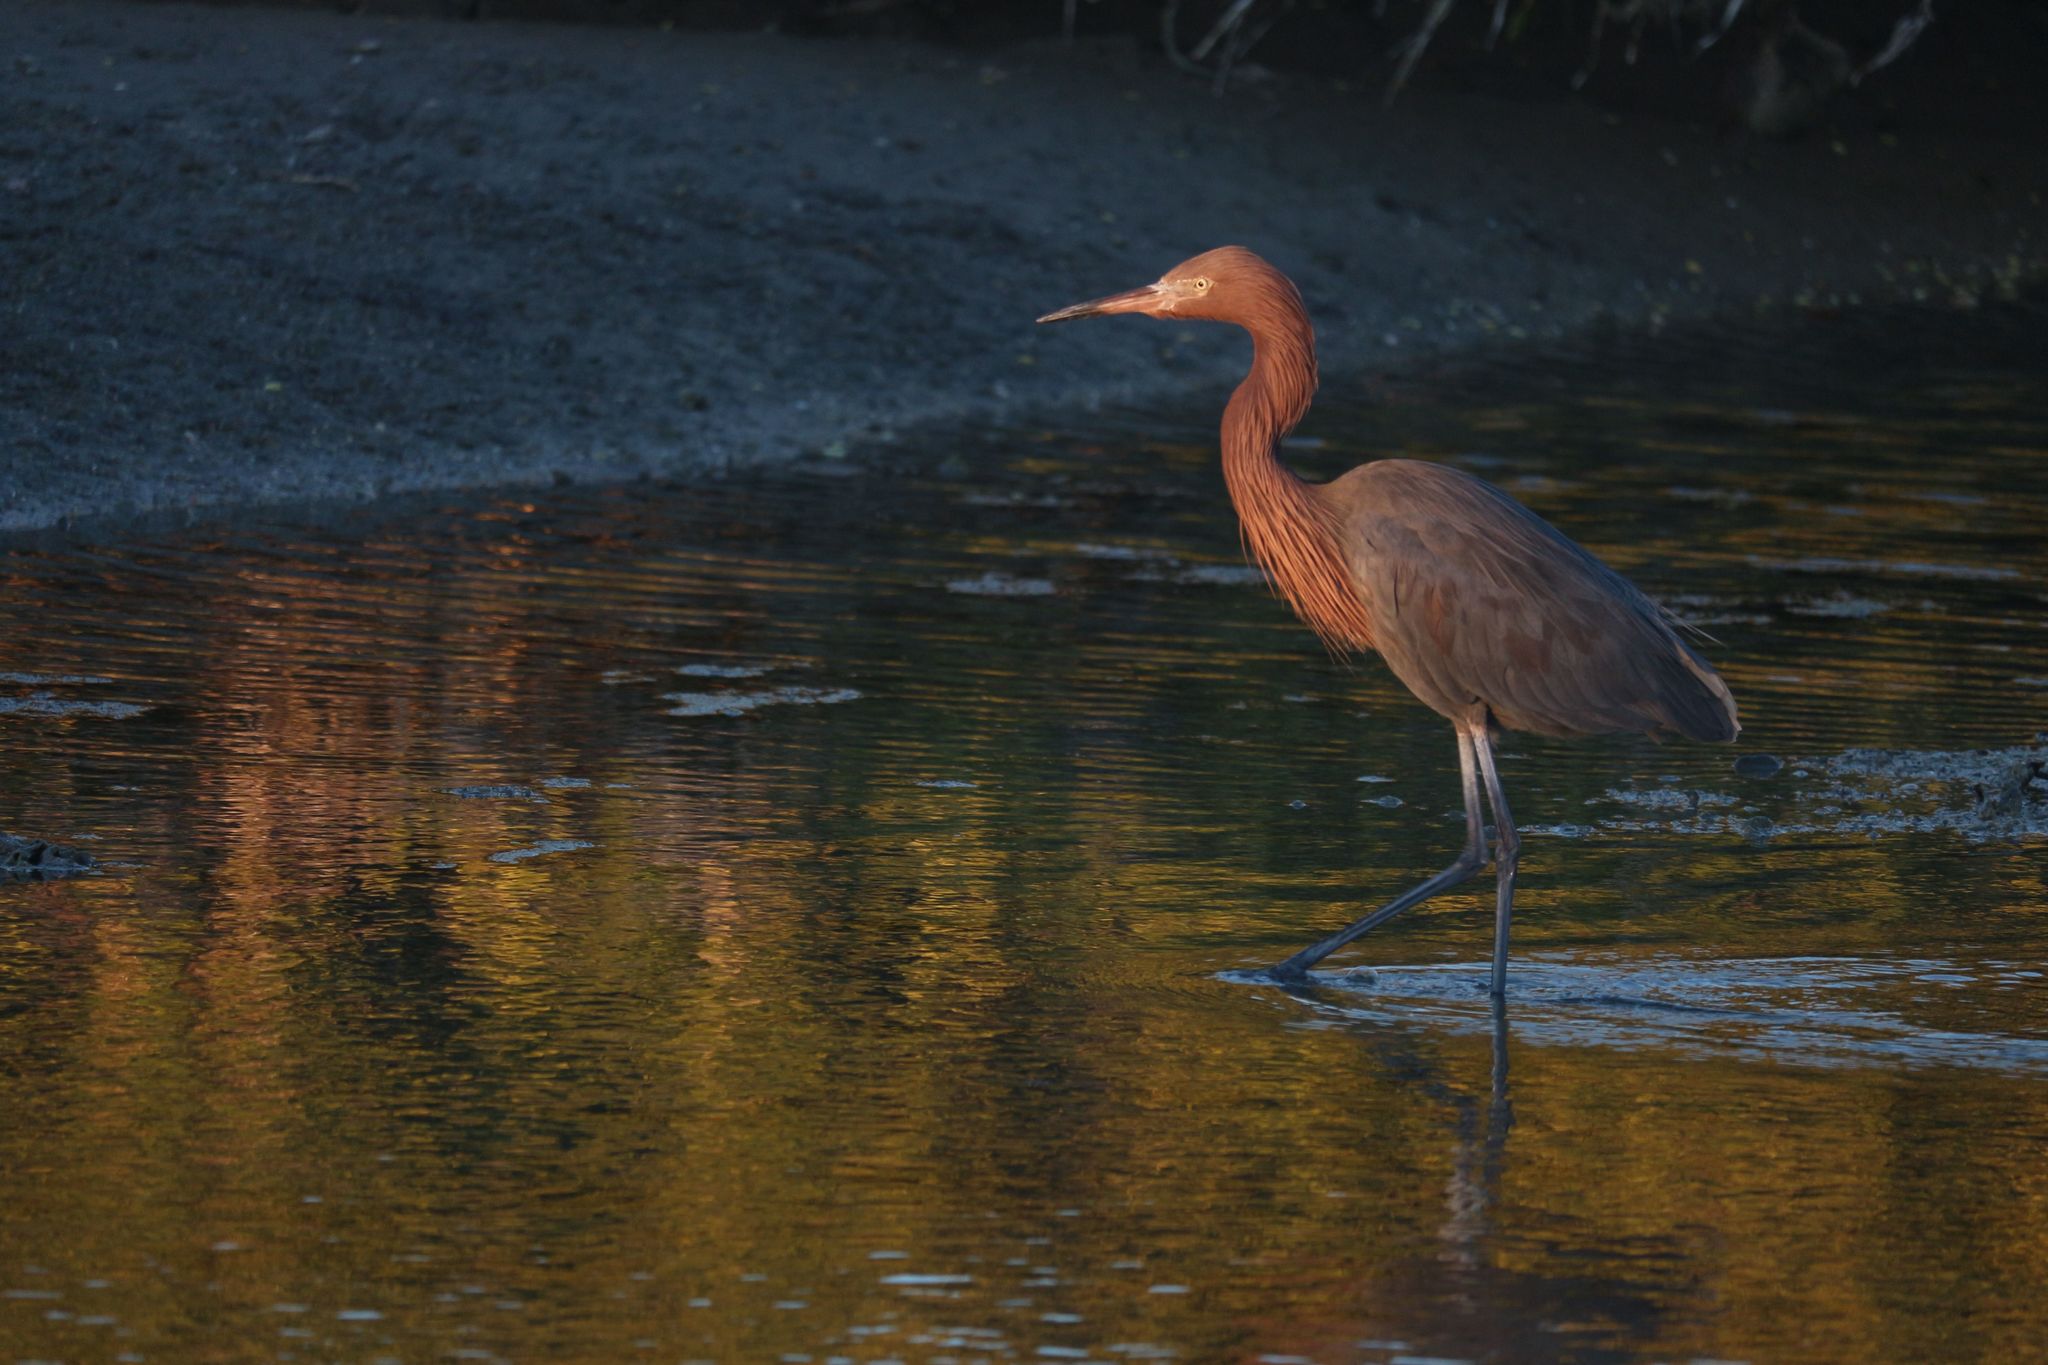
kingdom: Animalia
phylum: Chordata
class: Aves
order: Pelecaniformes
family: Ardeidae
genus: Egretta
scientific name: Egretta rufescens
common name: Reddish egret
